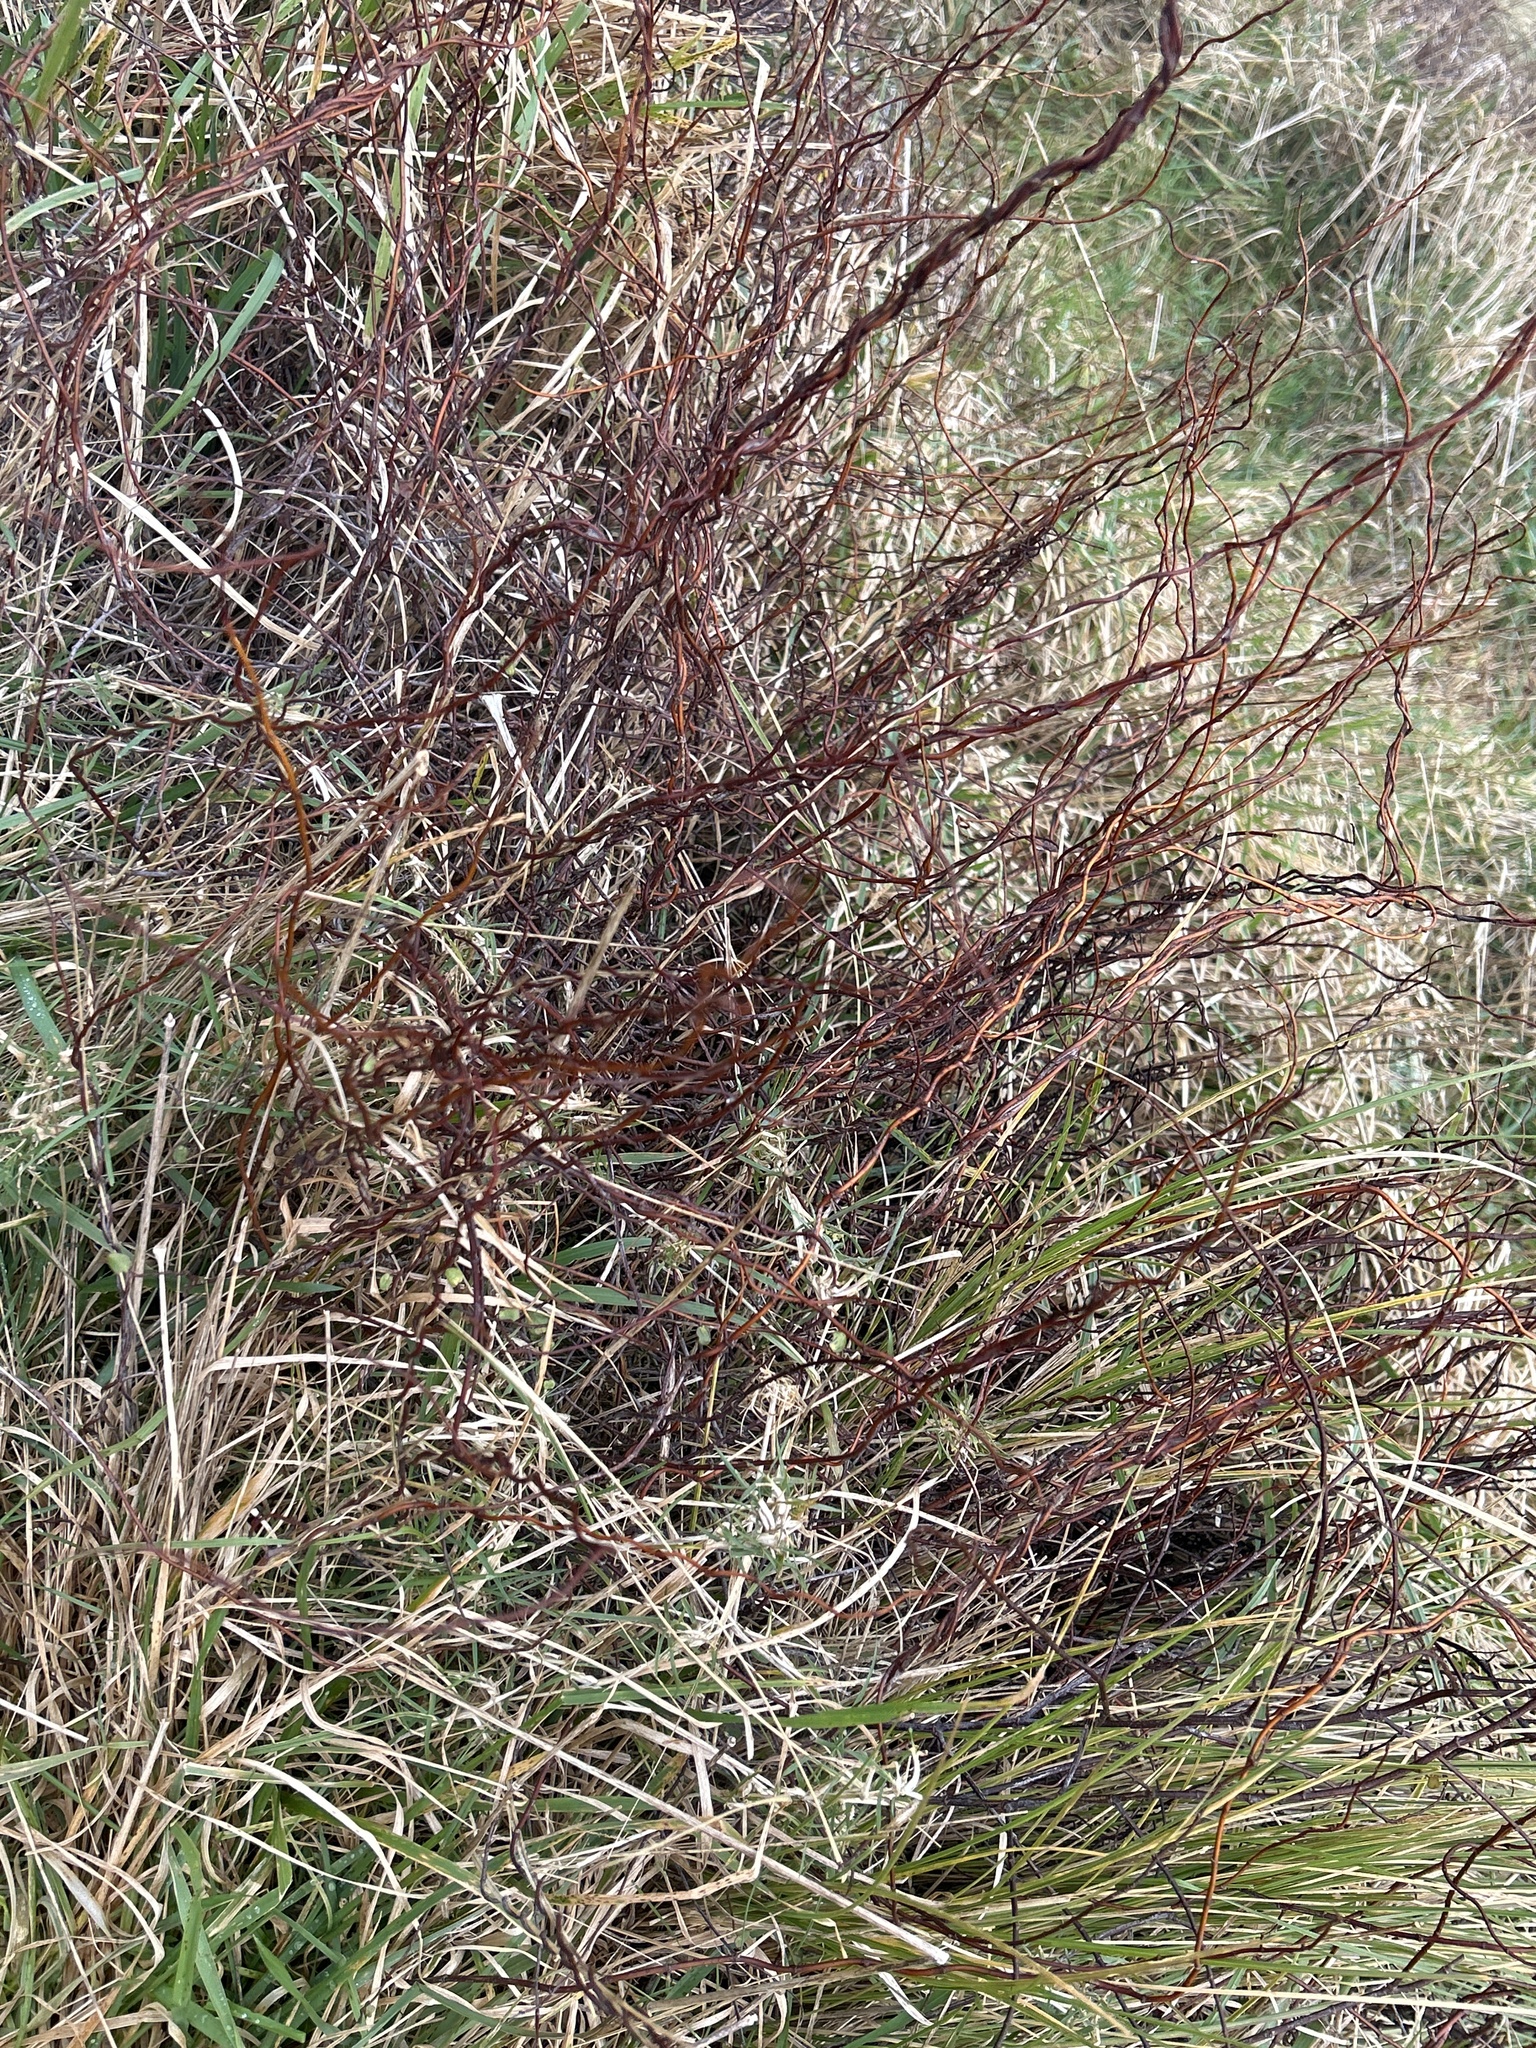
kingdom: Plantae
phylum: Tracheophyta
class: Magnoliopsida
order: Caryophyllales
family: Polygonaceae
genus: Muehlenbeckia
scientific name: Muehlenbeckia complexa
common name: Wireplant
